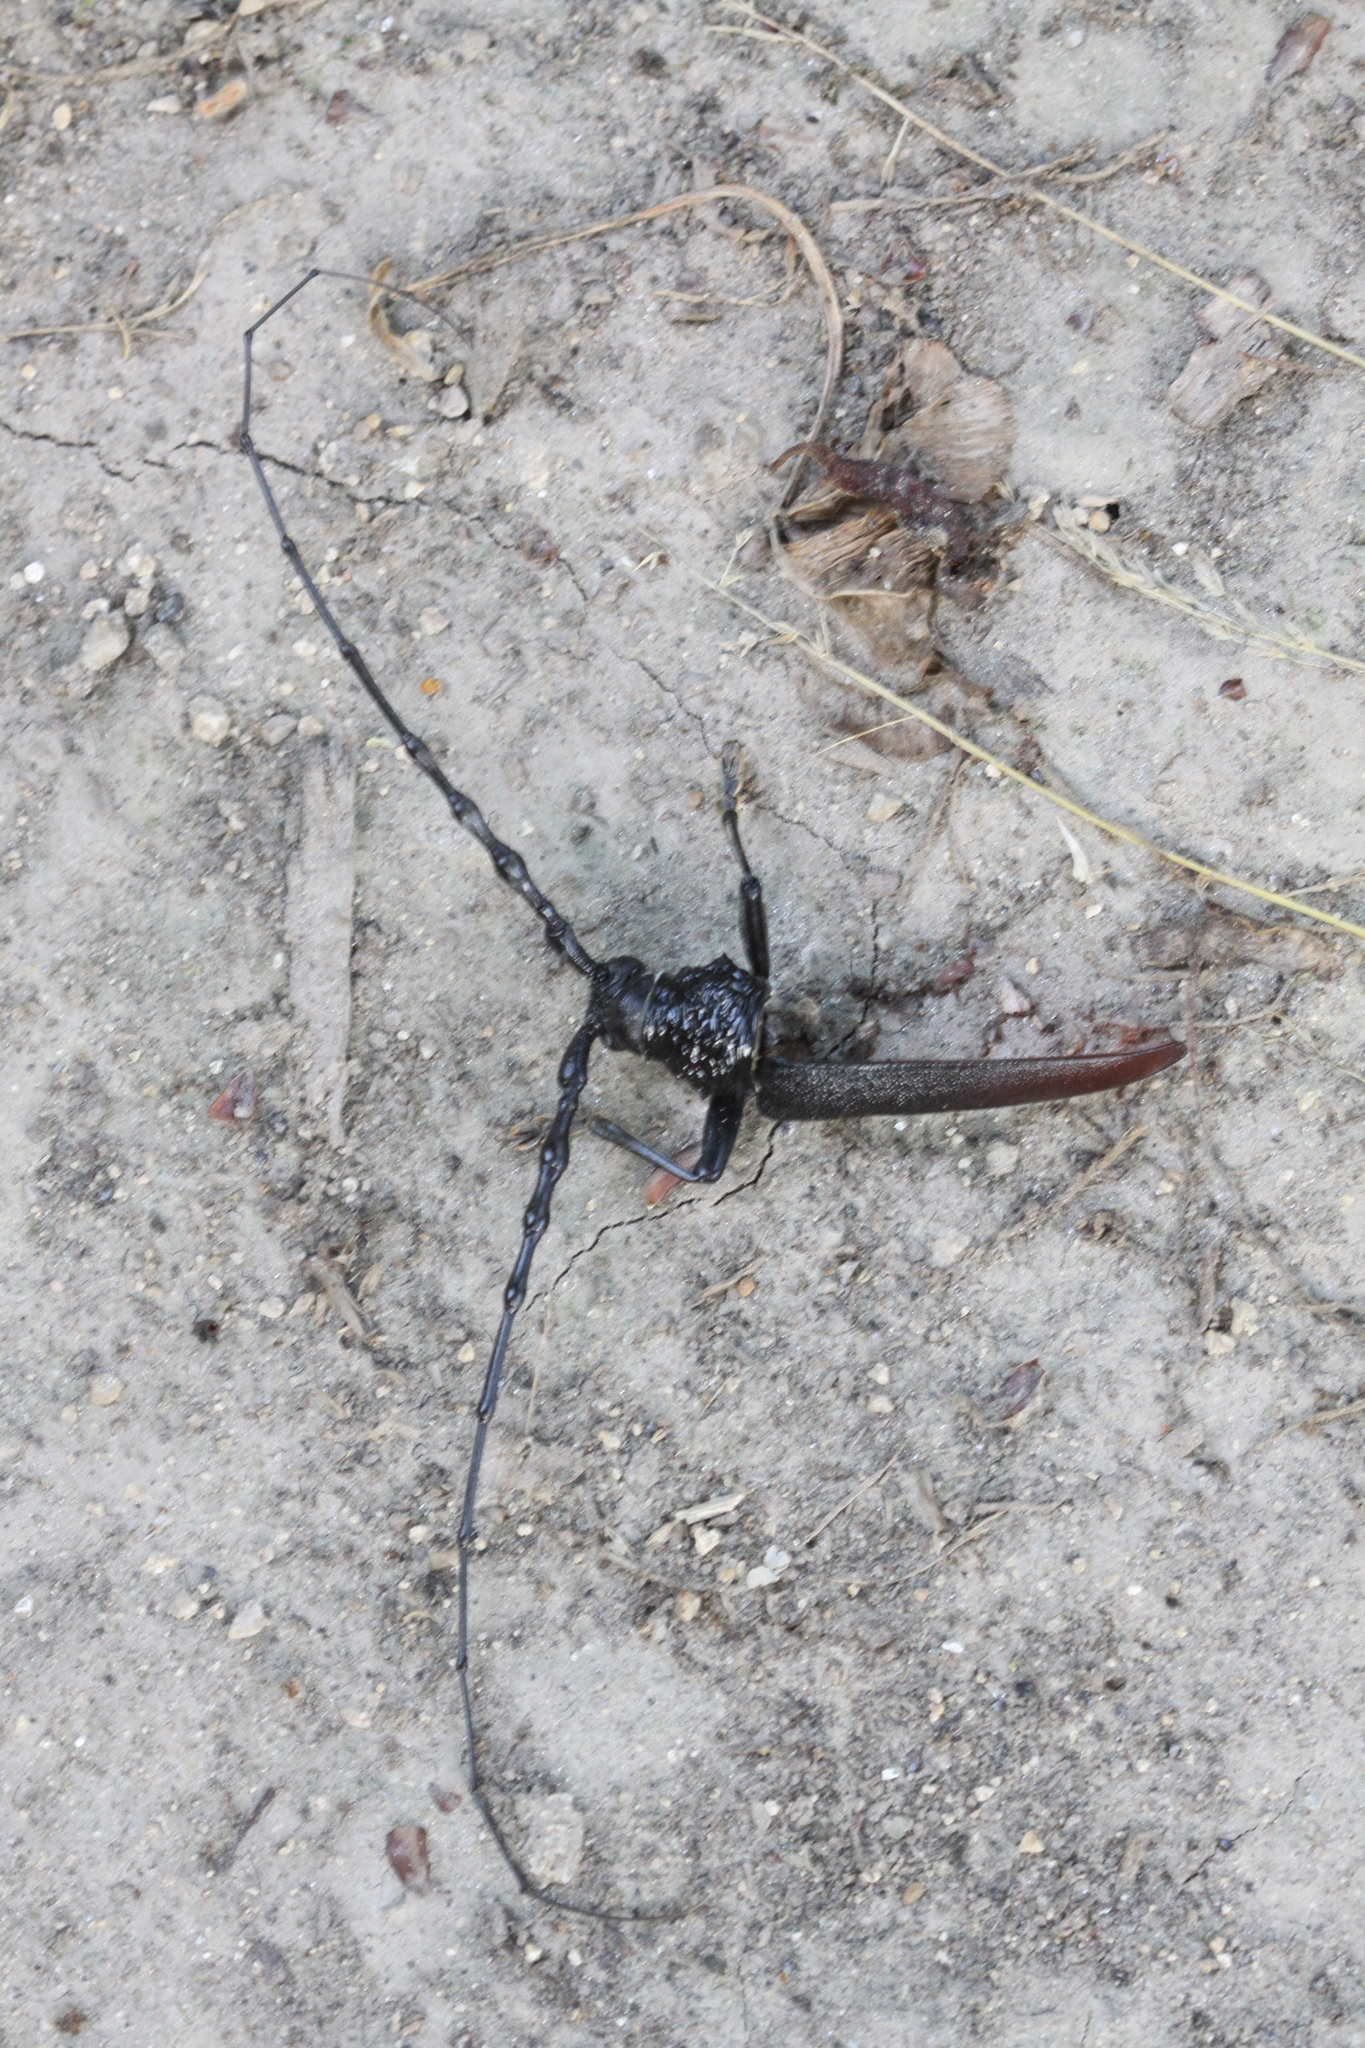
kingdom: Animalia
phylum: Arthropoda
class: Insecta
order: Coleoptera
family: Cerambycidae
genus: Cerambyx
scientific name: Cerambyx cerdo
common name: Cerambyx longicorn
